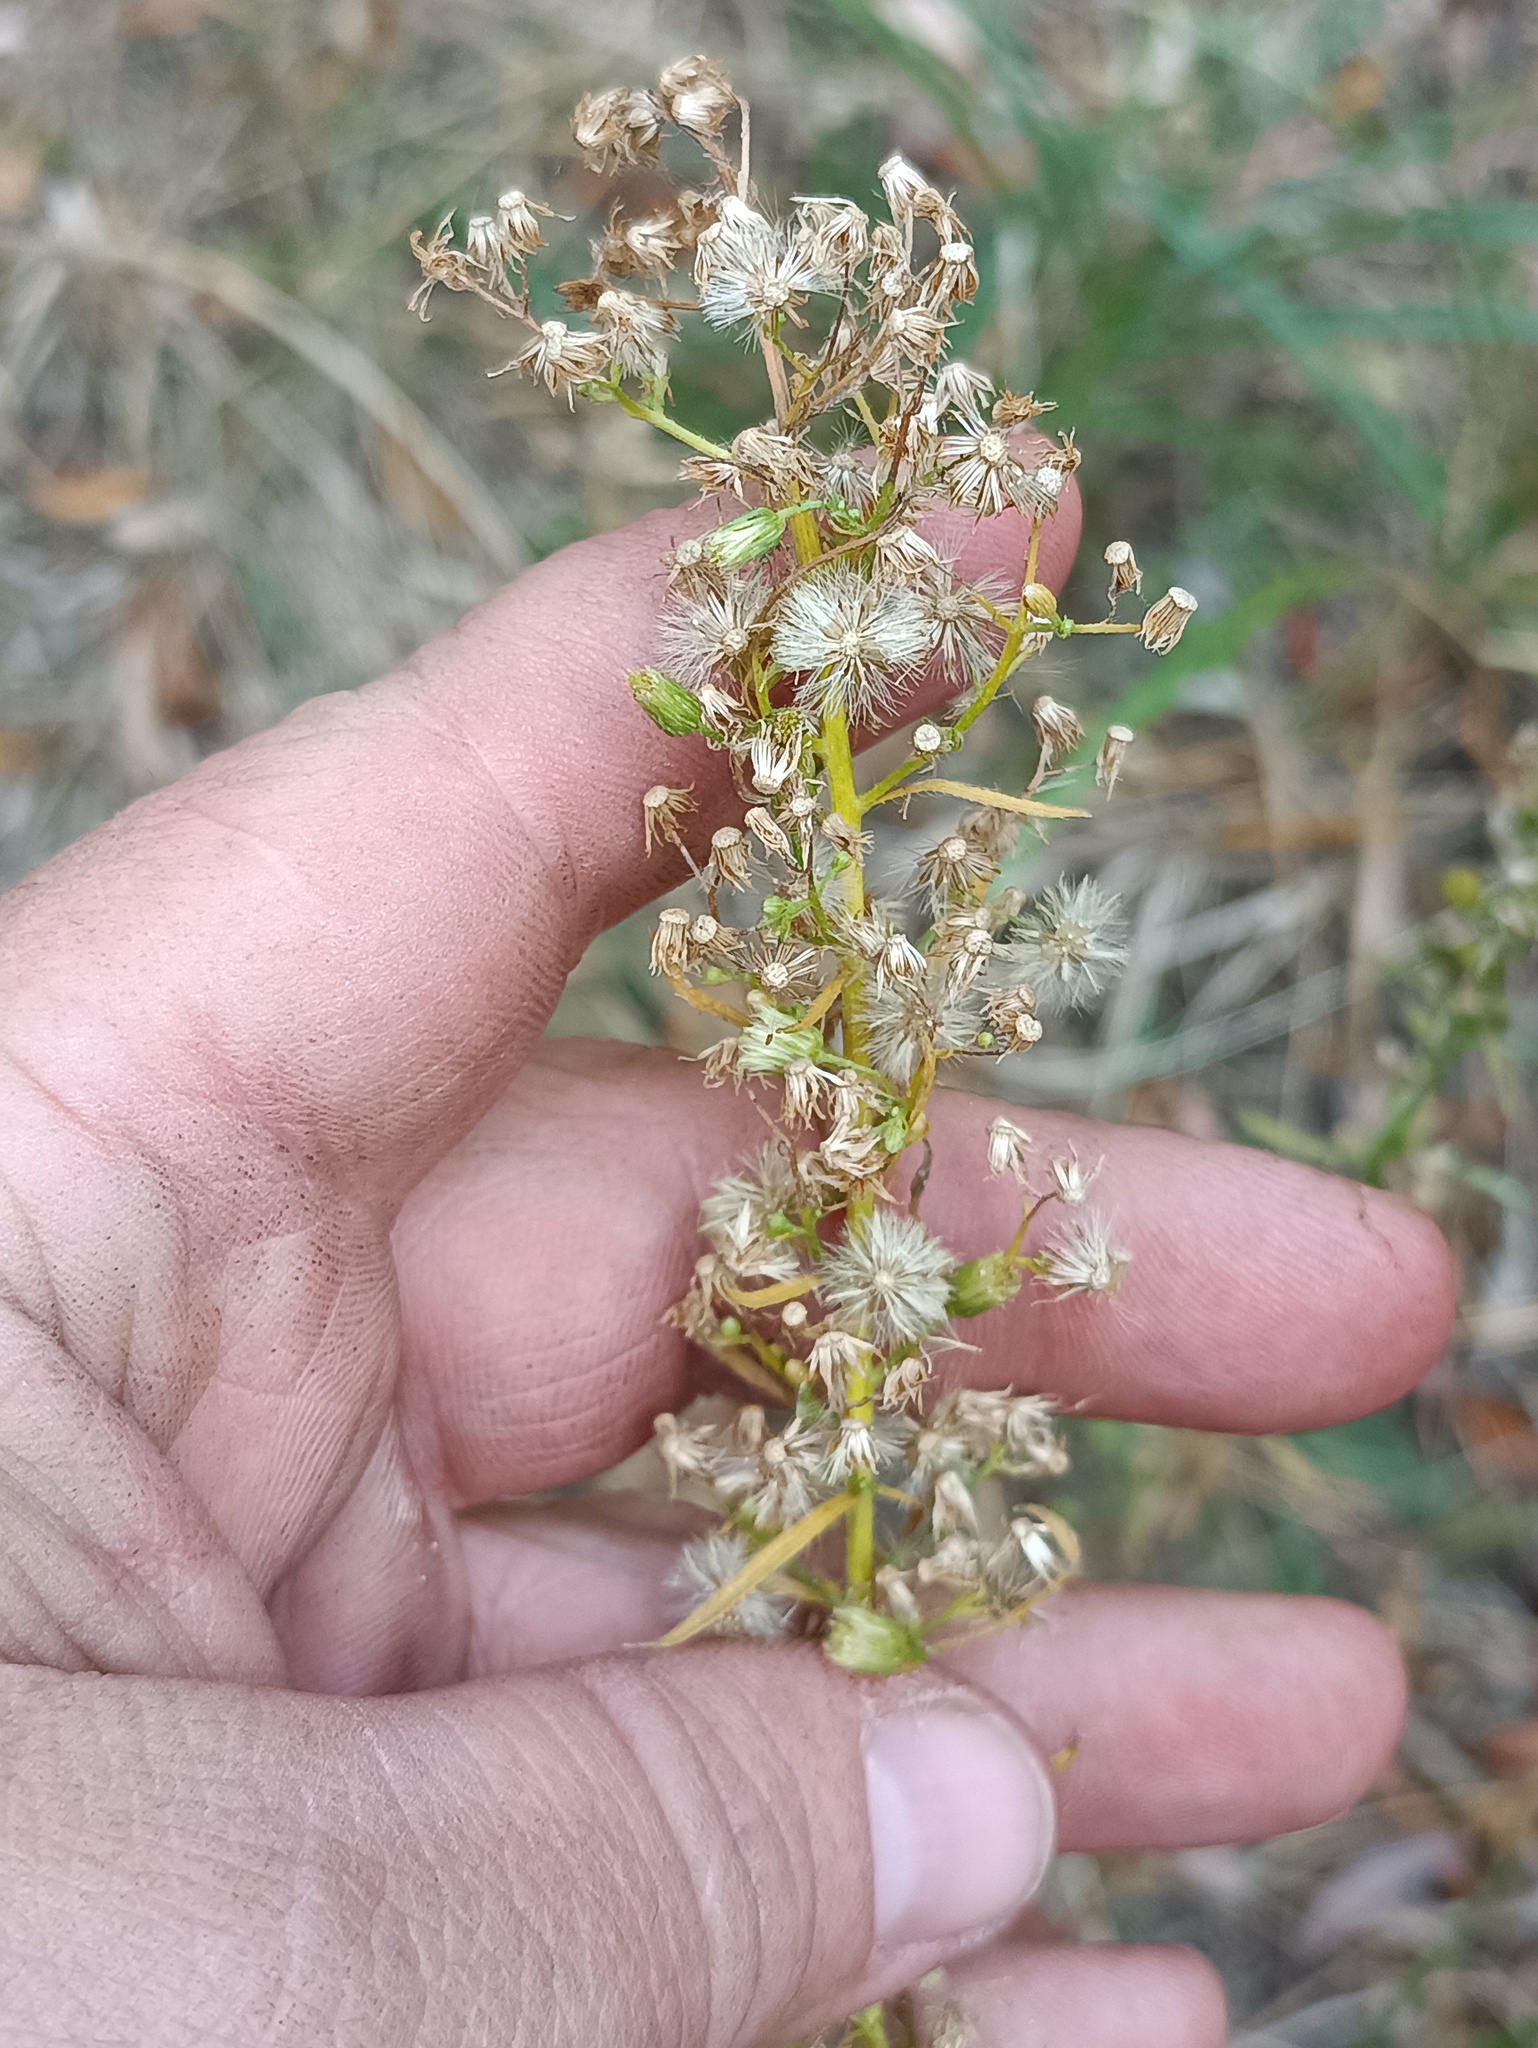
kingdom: Plantae
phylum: Tracheophyta
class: Magnoliopsida
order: Asterales
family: Asteraceae
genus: Erigeron
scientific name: Erigeron canadensis
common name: Canadian fleabane
